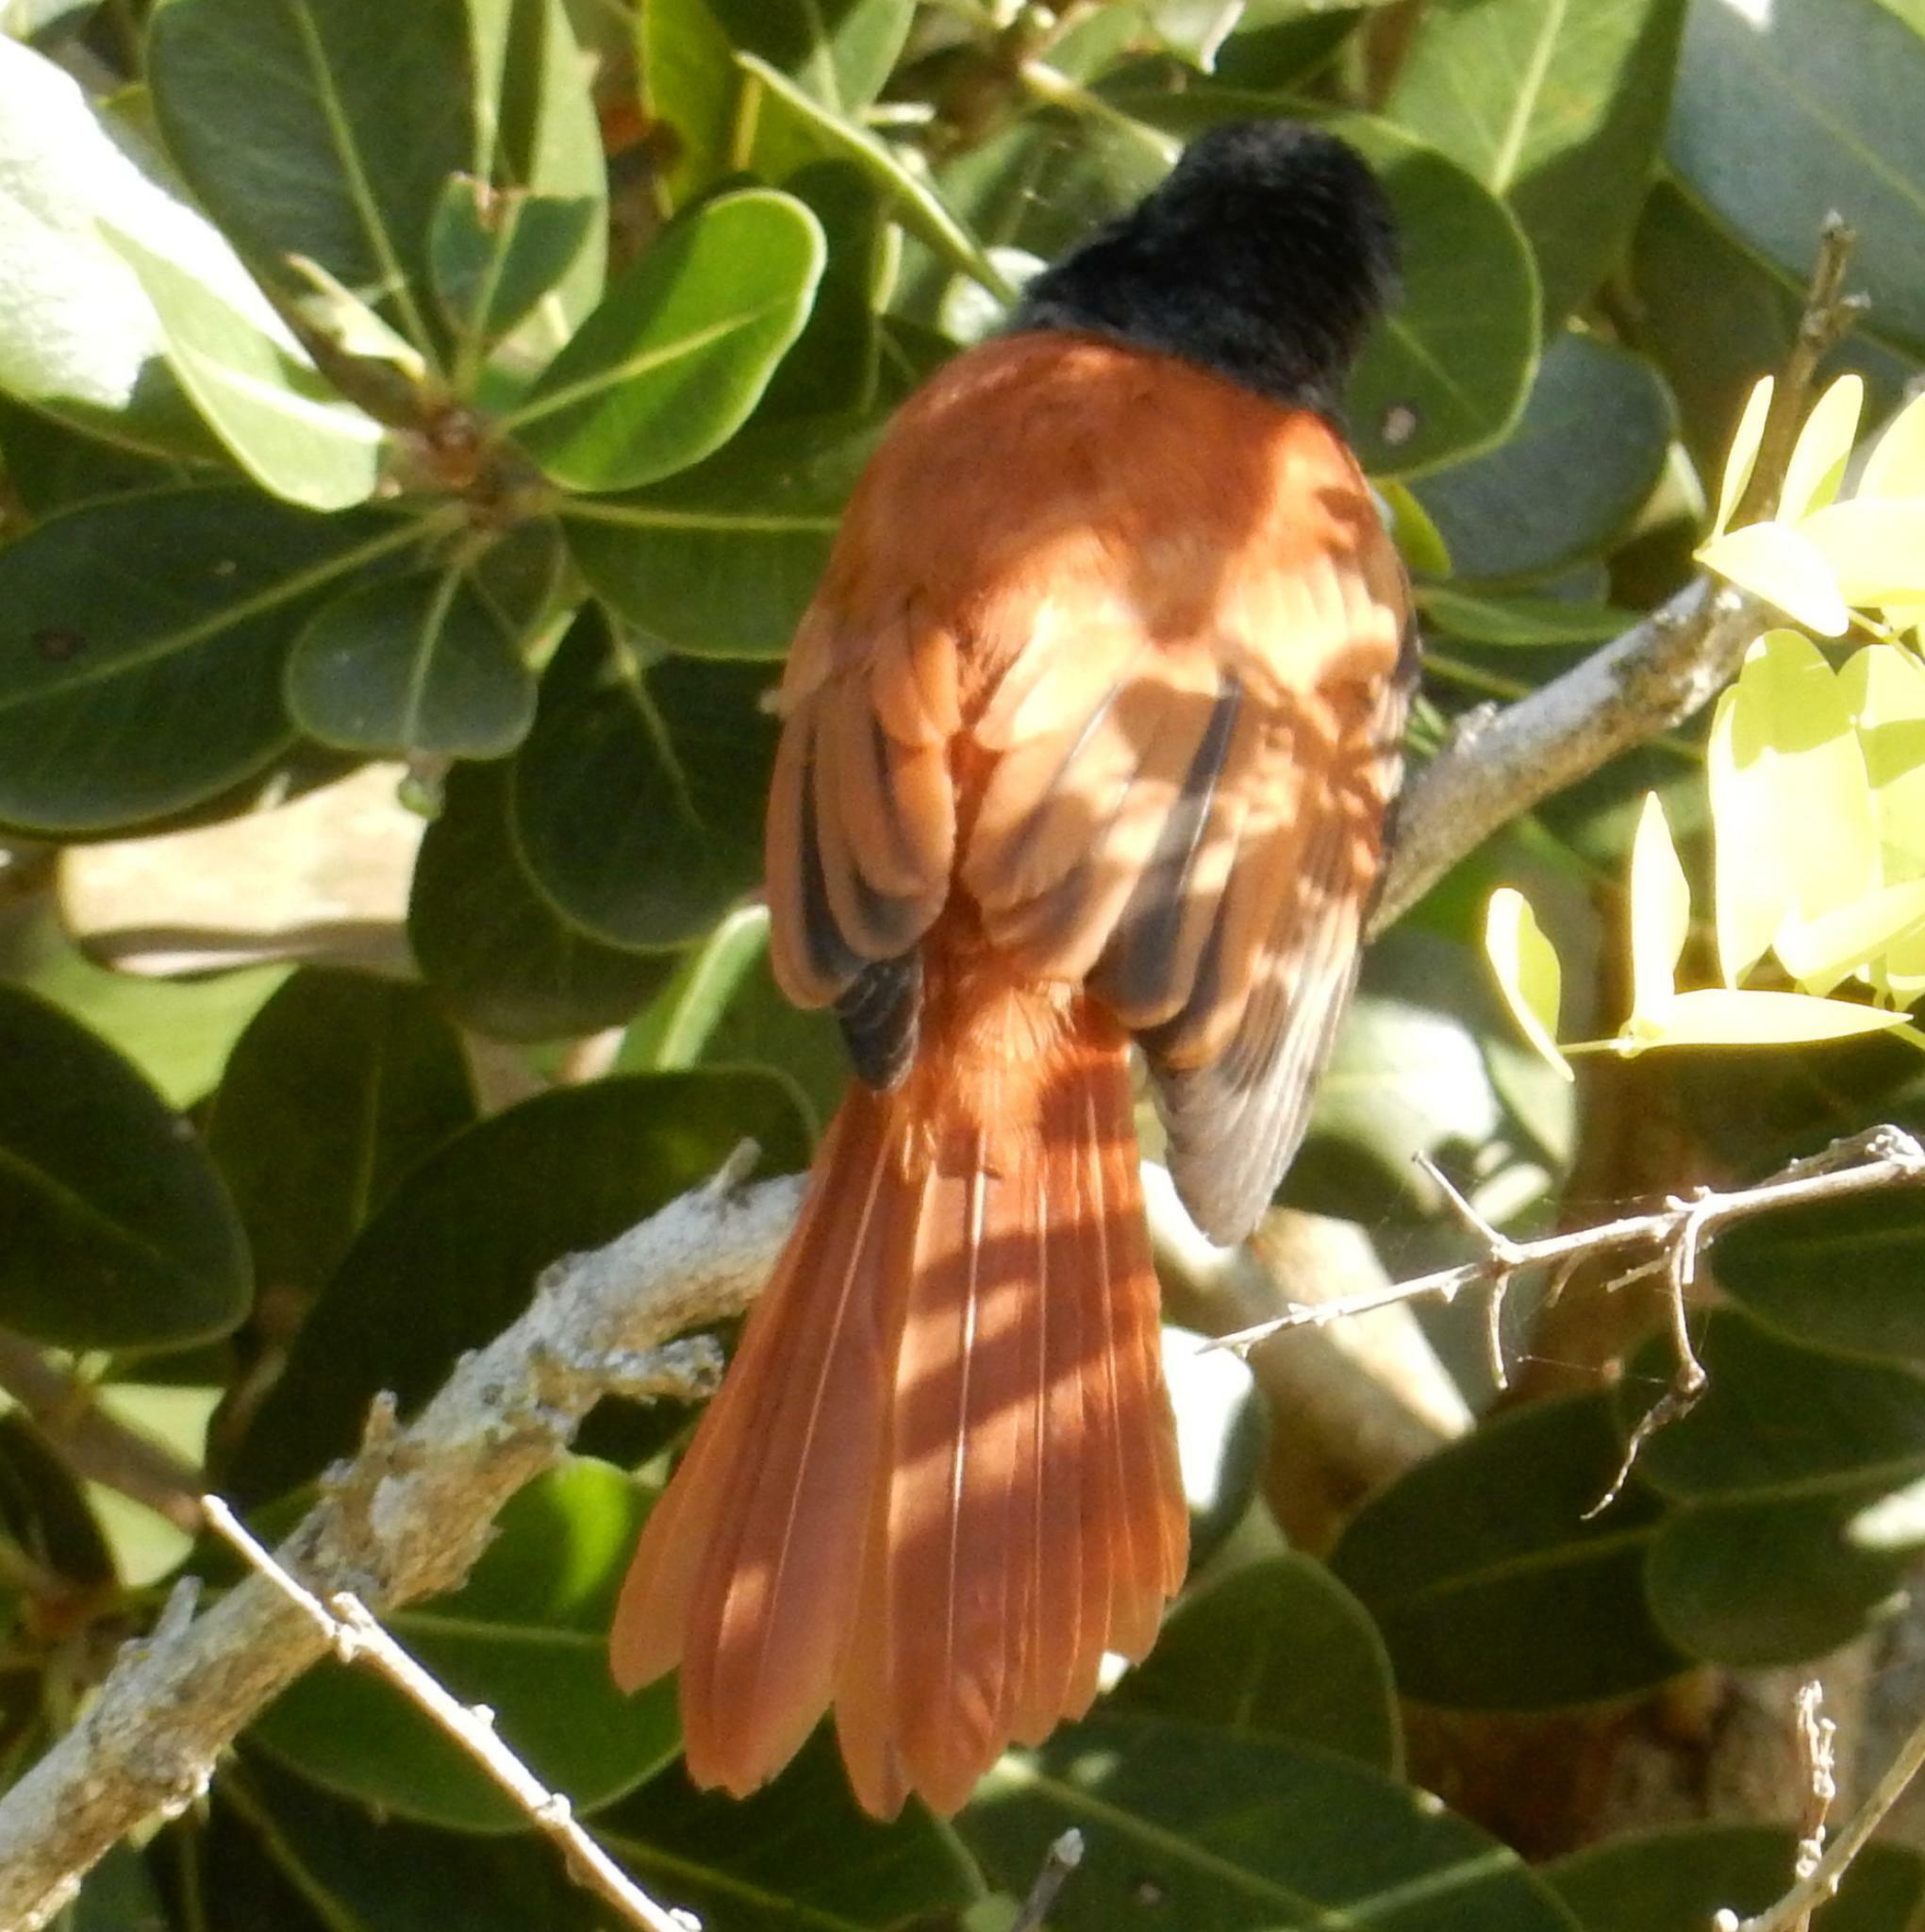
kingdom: Animalia
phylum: Chordata
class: Aves
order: Passeriformes
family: Monarchidae
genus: Terpsiphone
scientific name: Terpsiphone viridis
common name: African paradise flycatcher
